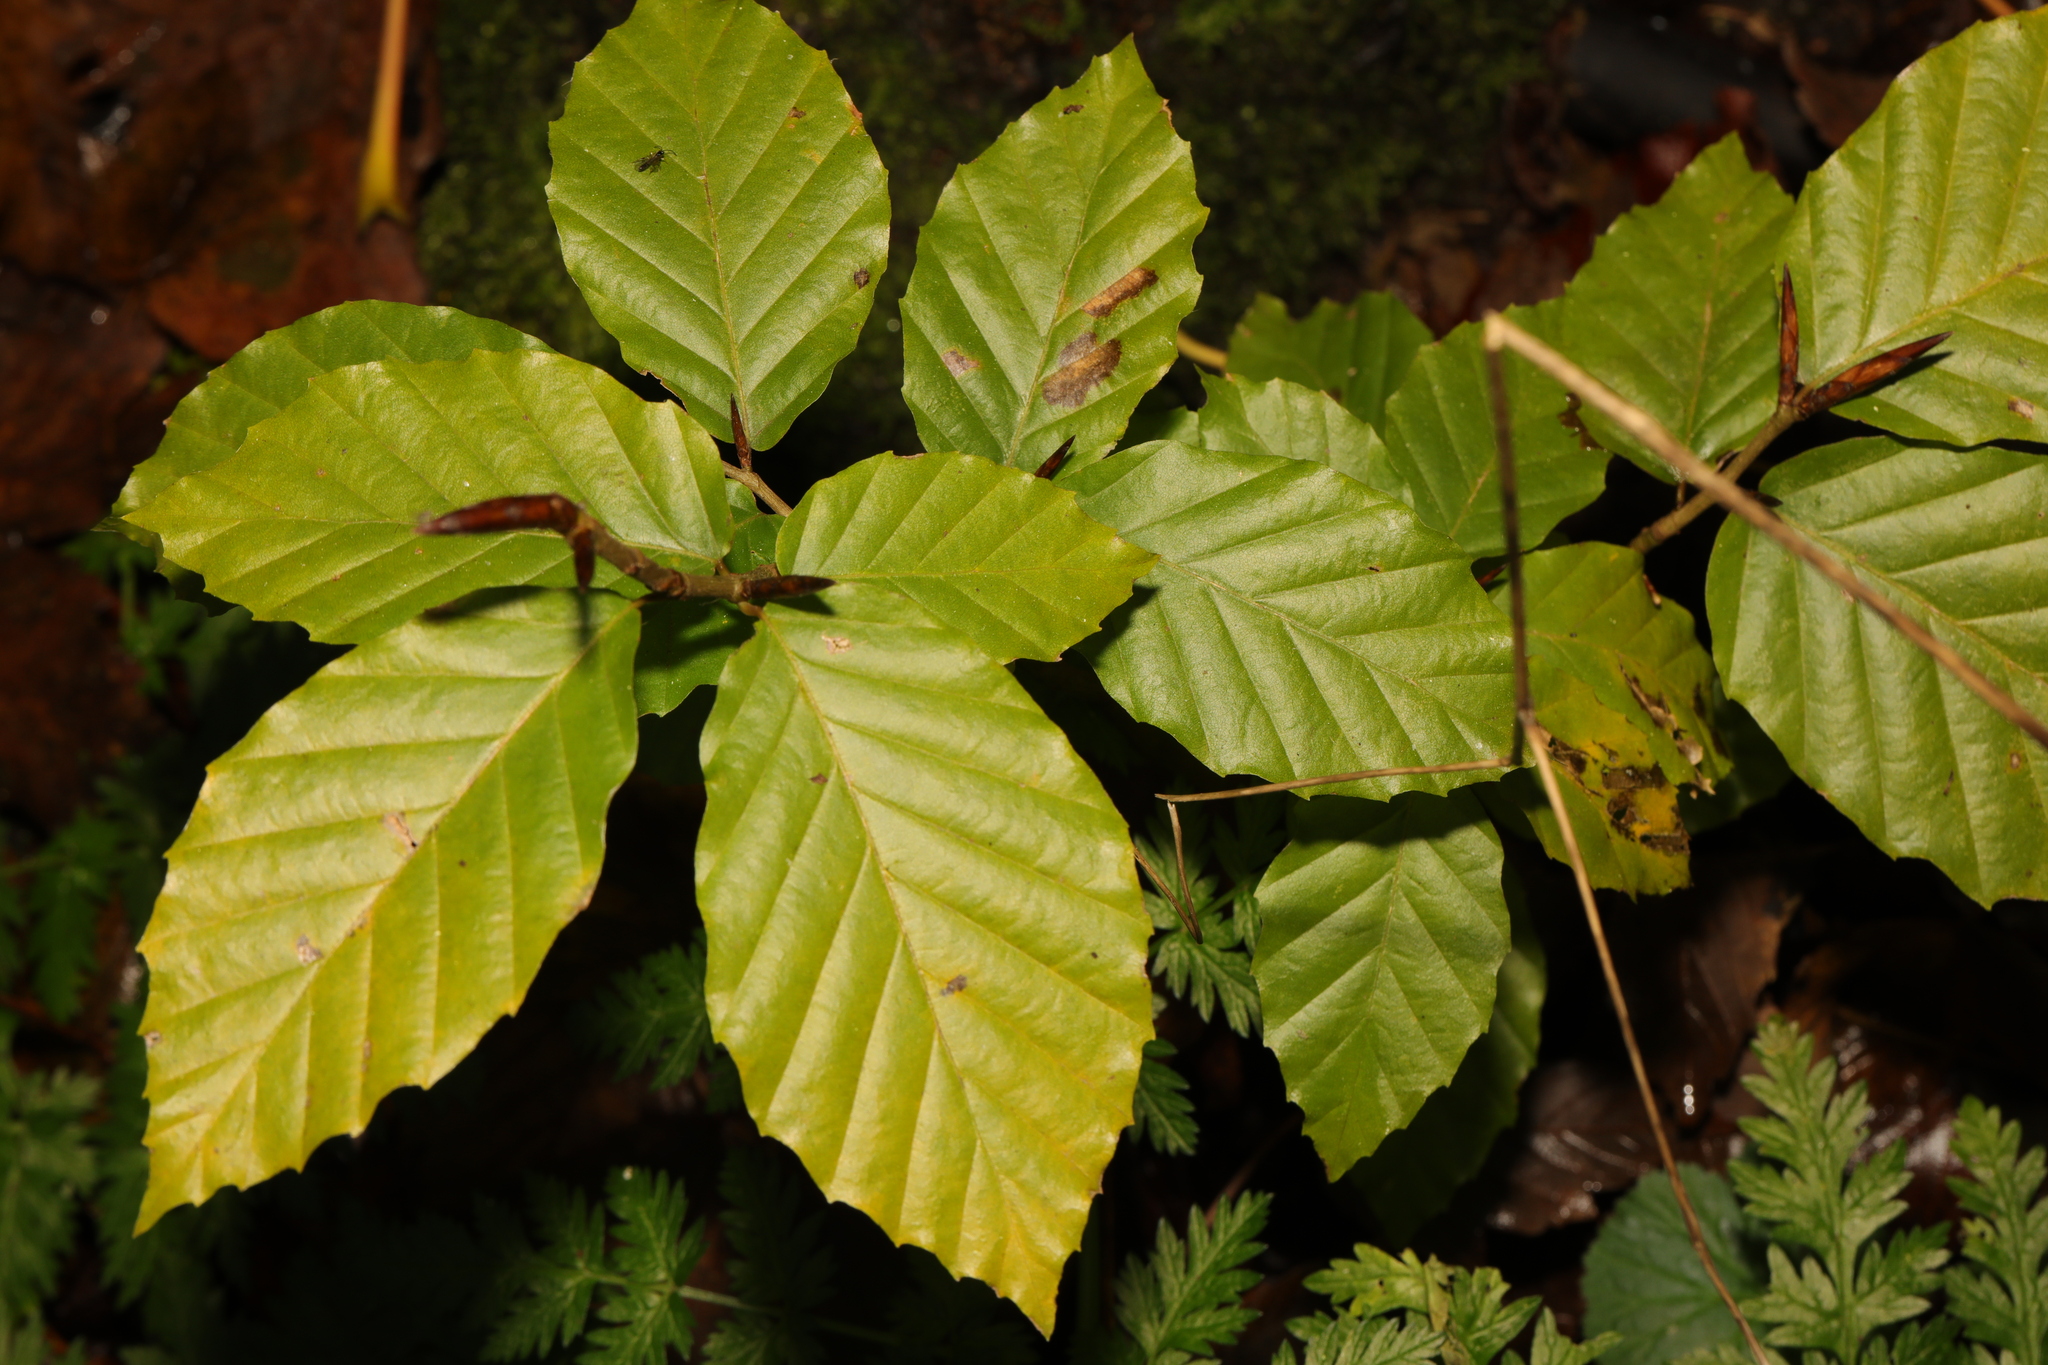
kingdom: Plantae
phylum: Tracheophyta
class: Magnoliopsida
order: Fagales
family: Fagaceae
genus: Fagus
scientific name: Fagus sylvatica
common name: Beech
